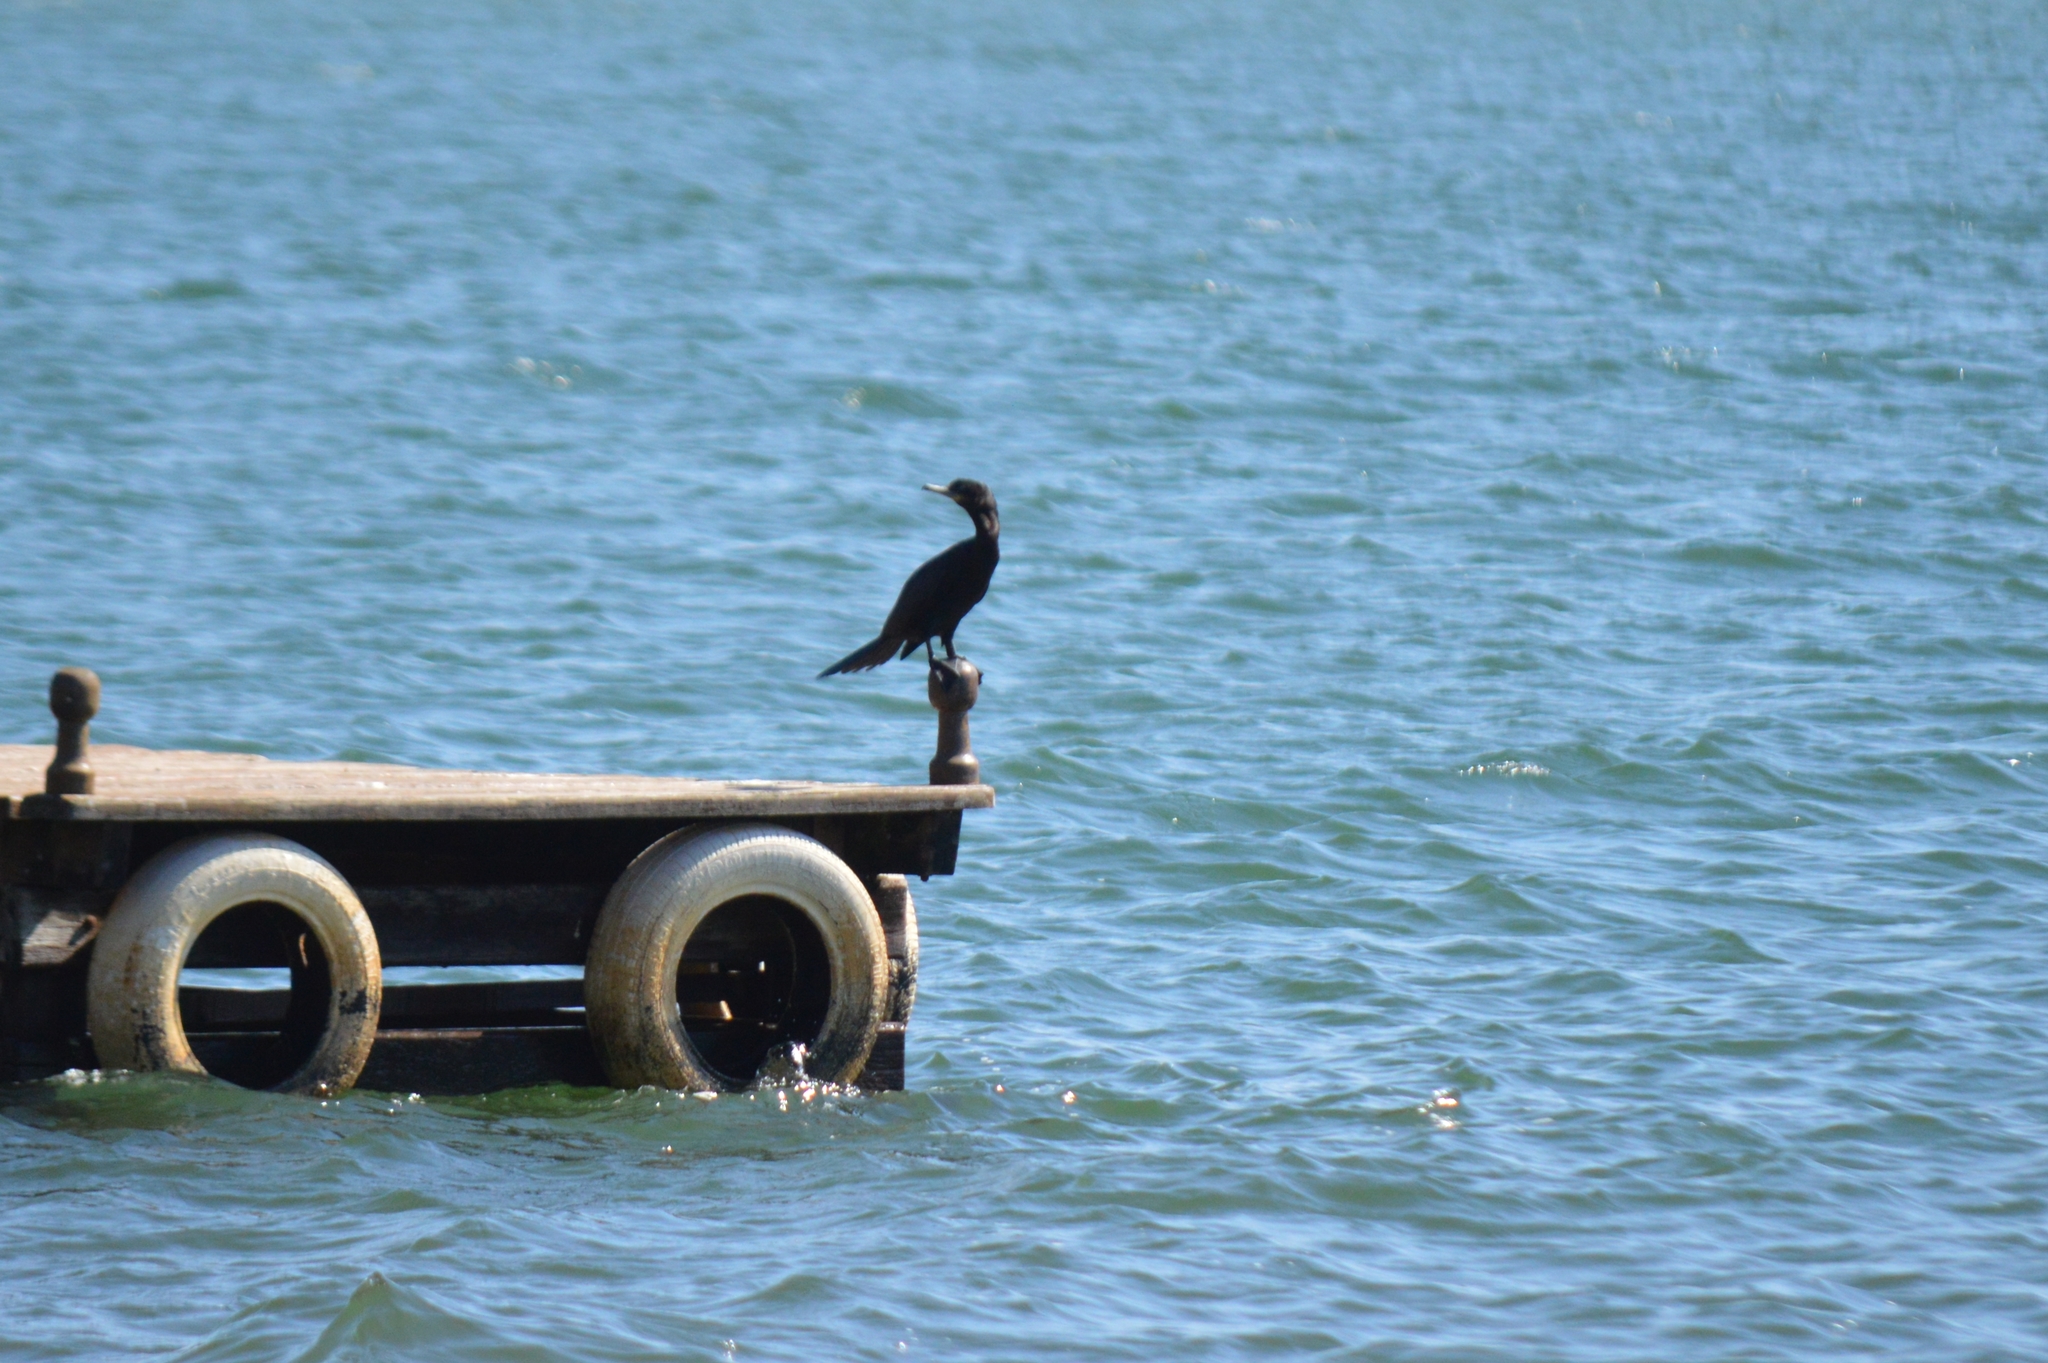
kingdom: Animalia
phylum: Chordata
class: Aves
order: Suliformes
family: Phalacrocoracidae
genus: Phalacrocorax
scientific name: Phalacrocorax brasilianus
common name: Neotropic cormorant
